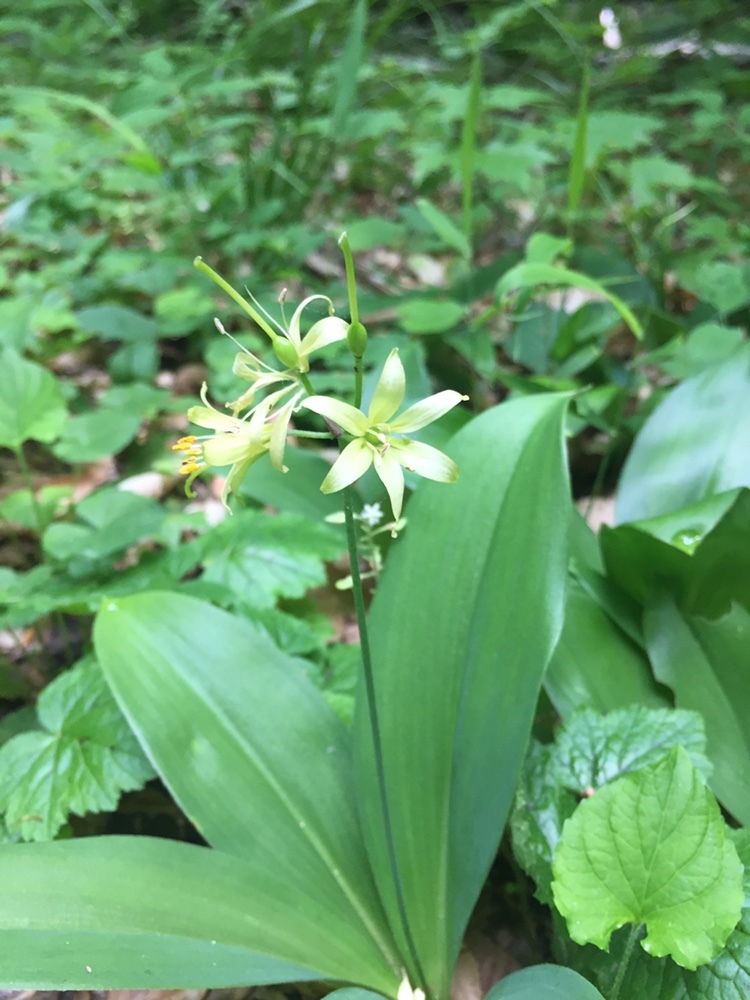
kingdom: Plantae
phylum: Tracheophyta
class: Liliopsida
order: Liliales
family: Liliaceae
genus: Clintonia
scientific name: Clintonia borealis
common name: Yellow clintonia
